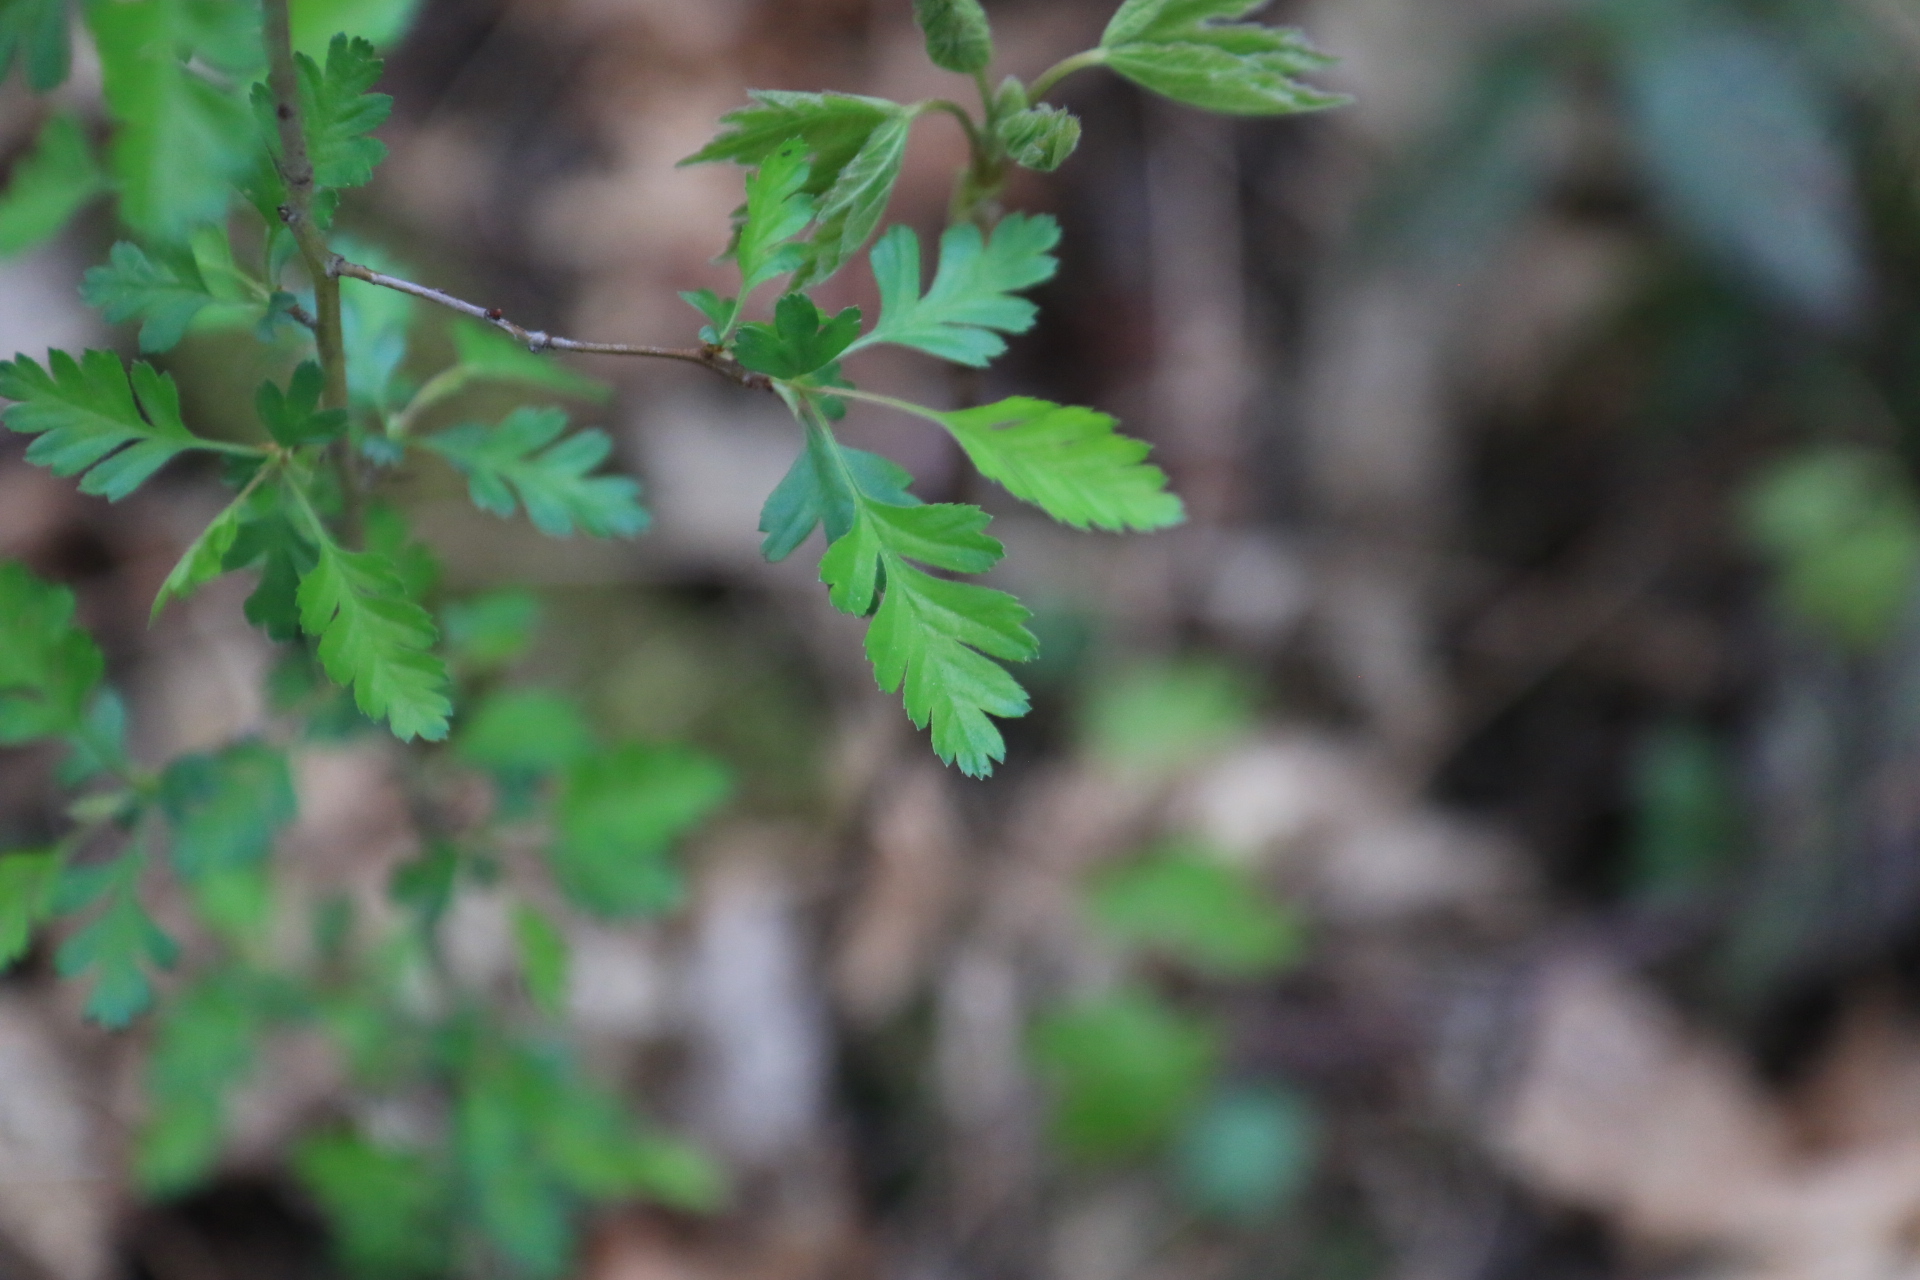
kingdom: Plantae
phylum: Tracheophyta
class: Magnoliopsida
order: Rosales
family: Rosaceae
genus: Crataegus
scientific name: Crataegus monogyna
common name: Hawthorn
